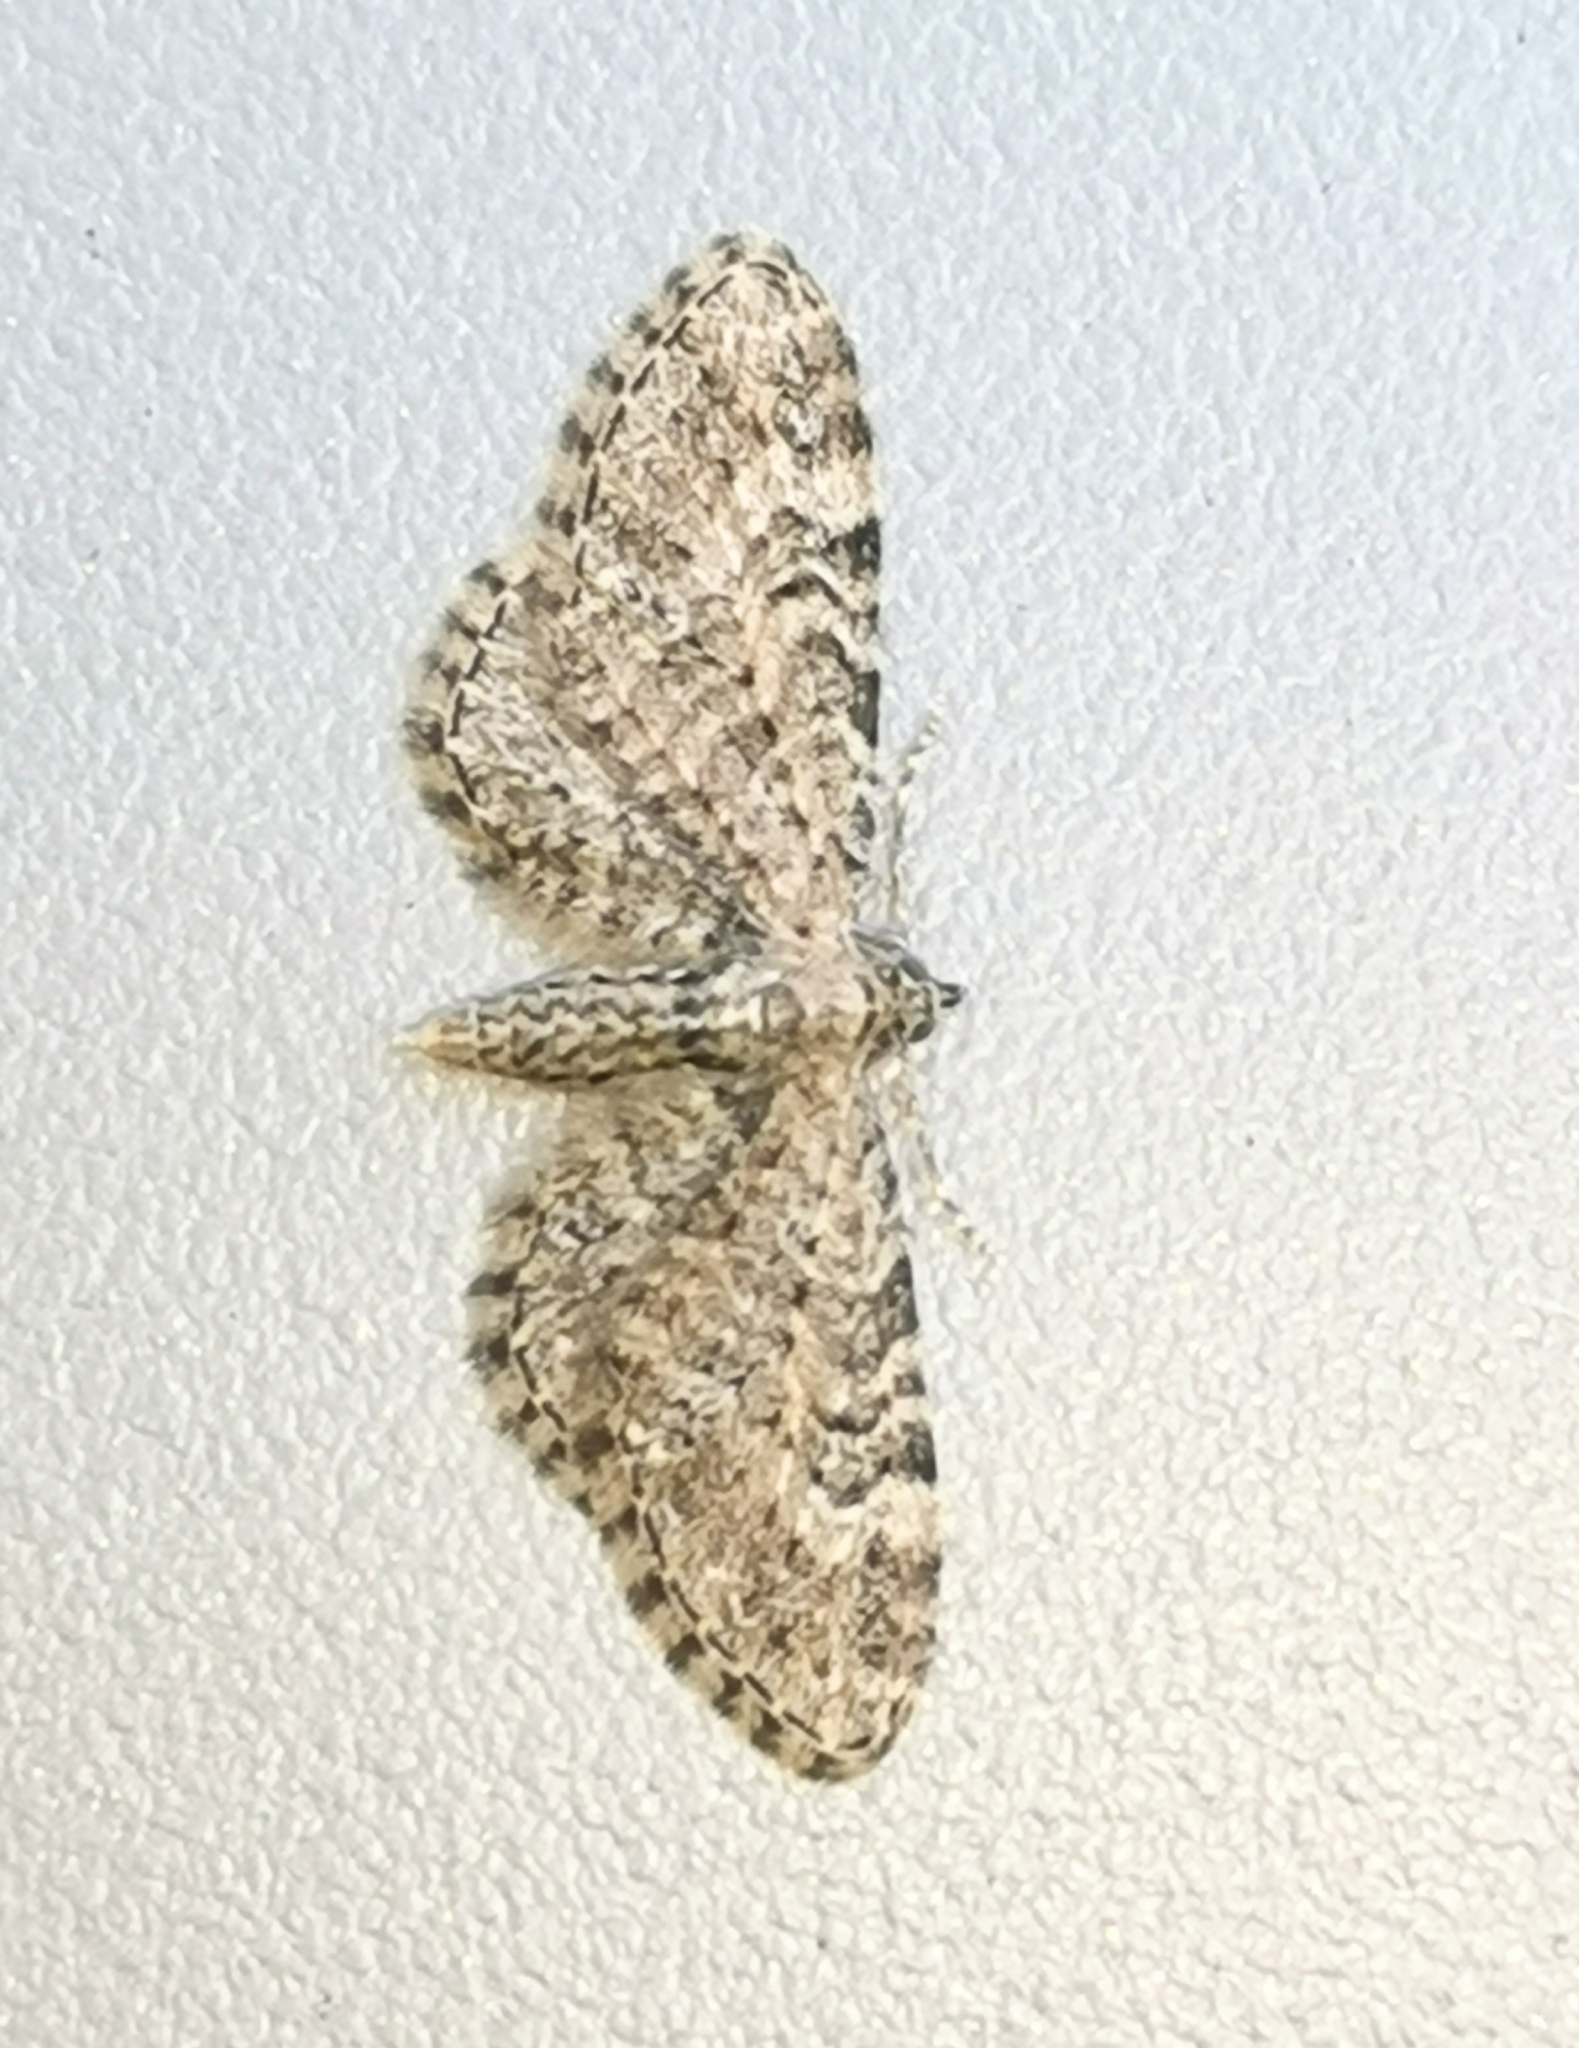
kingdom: Animalia
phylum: Arthropoda
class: Insecta
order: Lepidoptera
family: Geometridae
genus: Eupithecia
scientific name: Eupithecia vulgata
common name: Common pug
